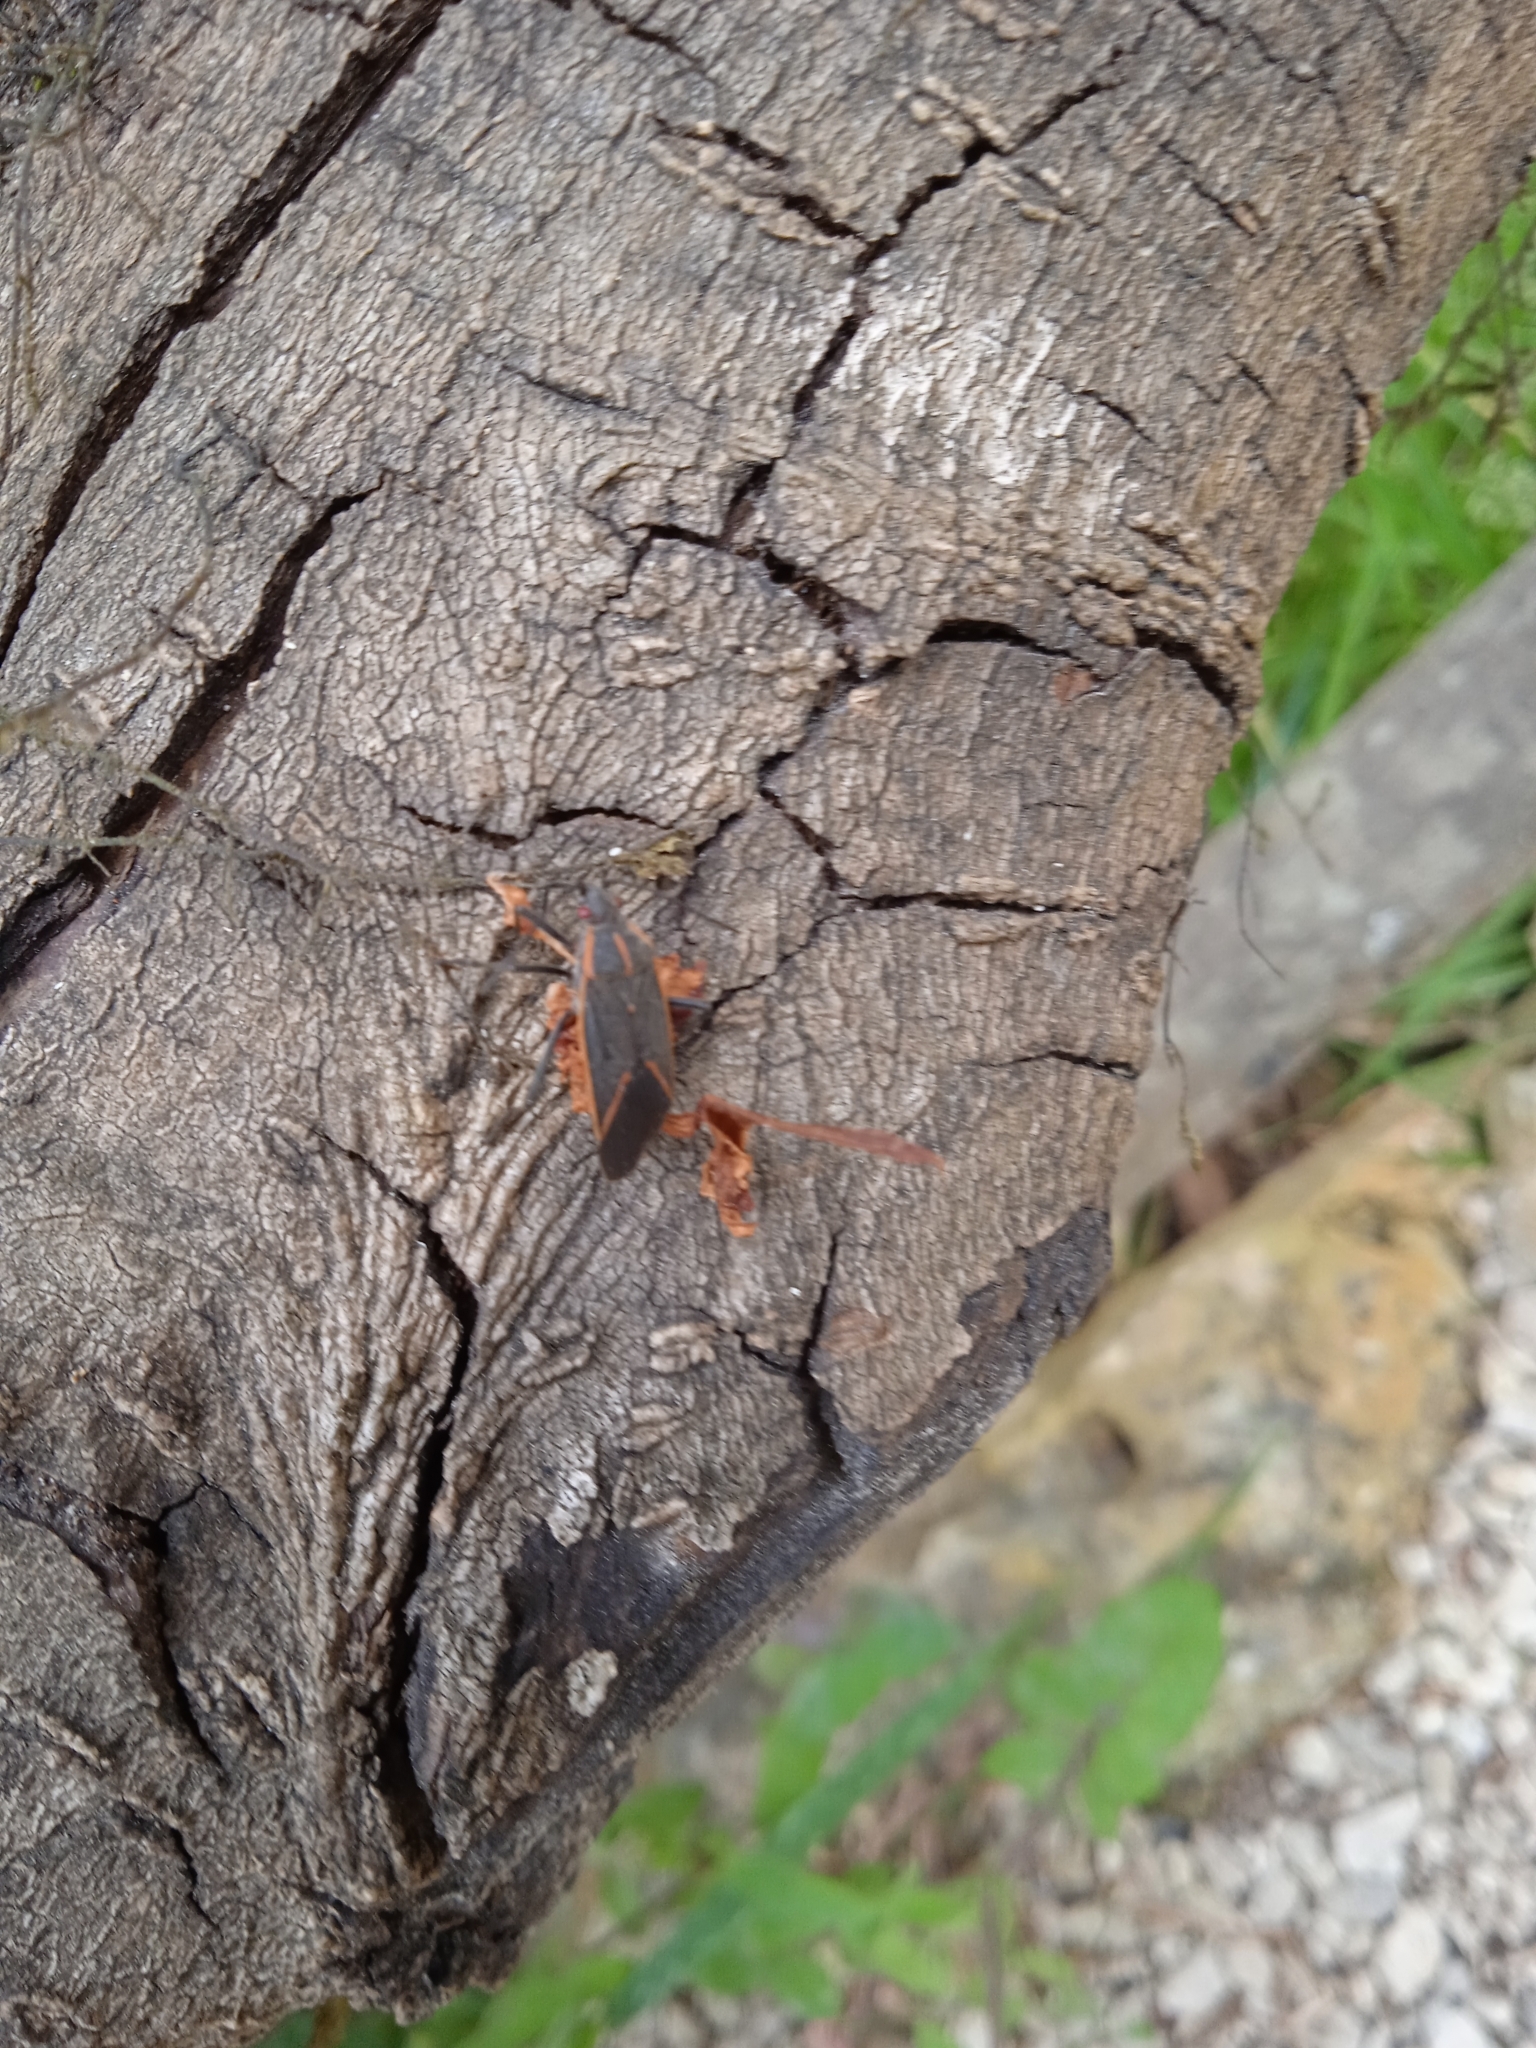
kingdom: Animalia
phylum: Arthropoda
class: Insecta
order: Hemiptera
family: Rhopalidae
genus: Boisea
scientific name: Boisea trivittata
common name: Boxelder bug
